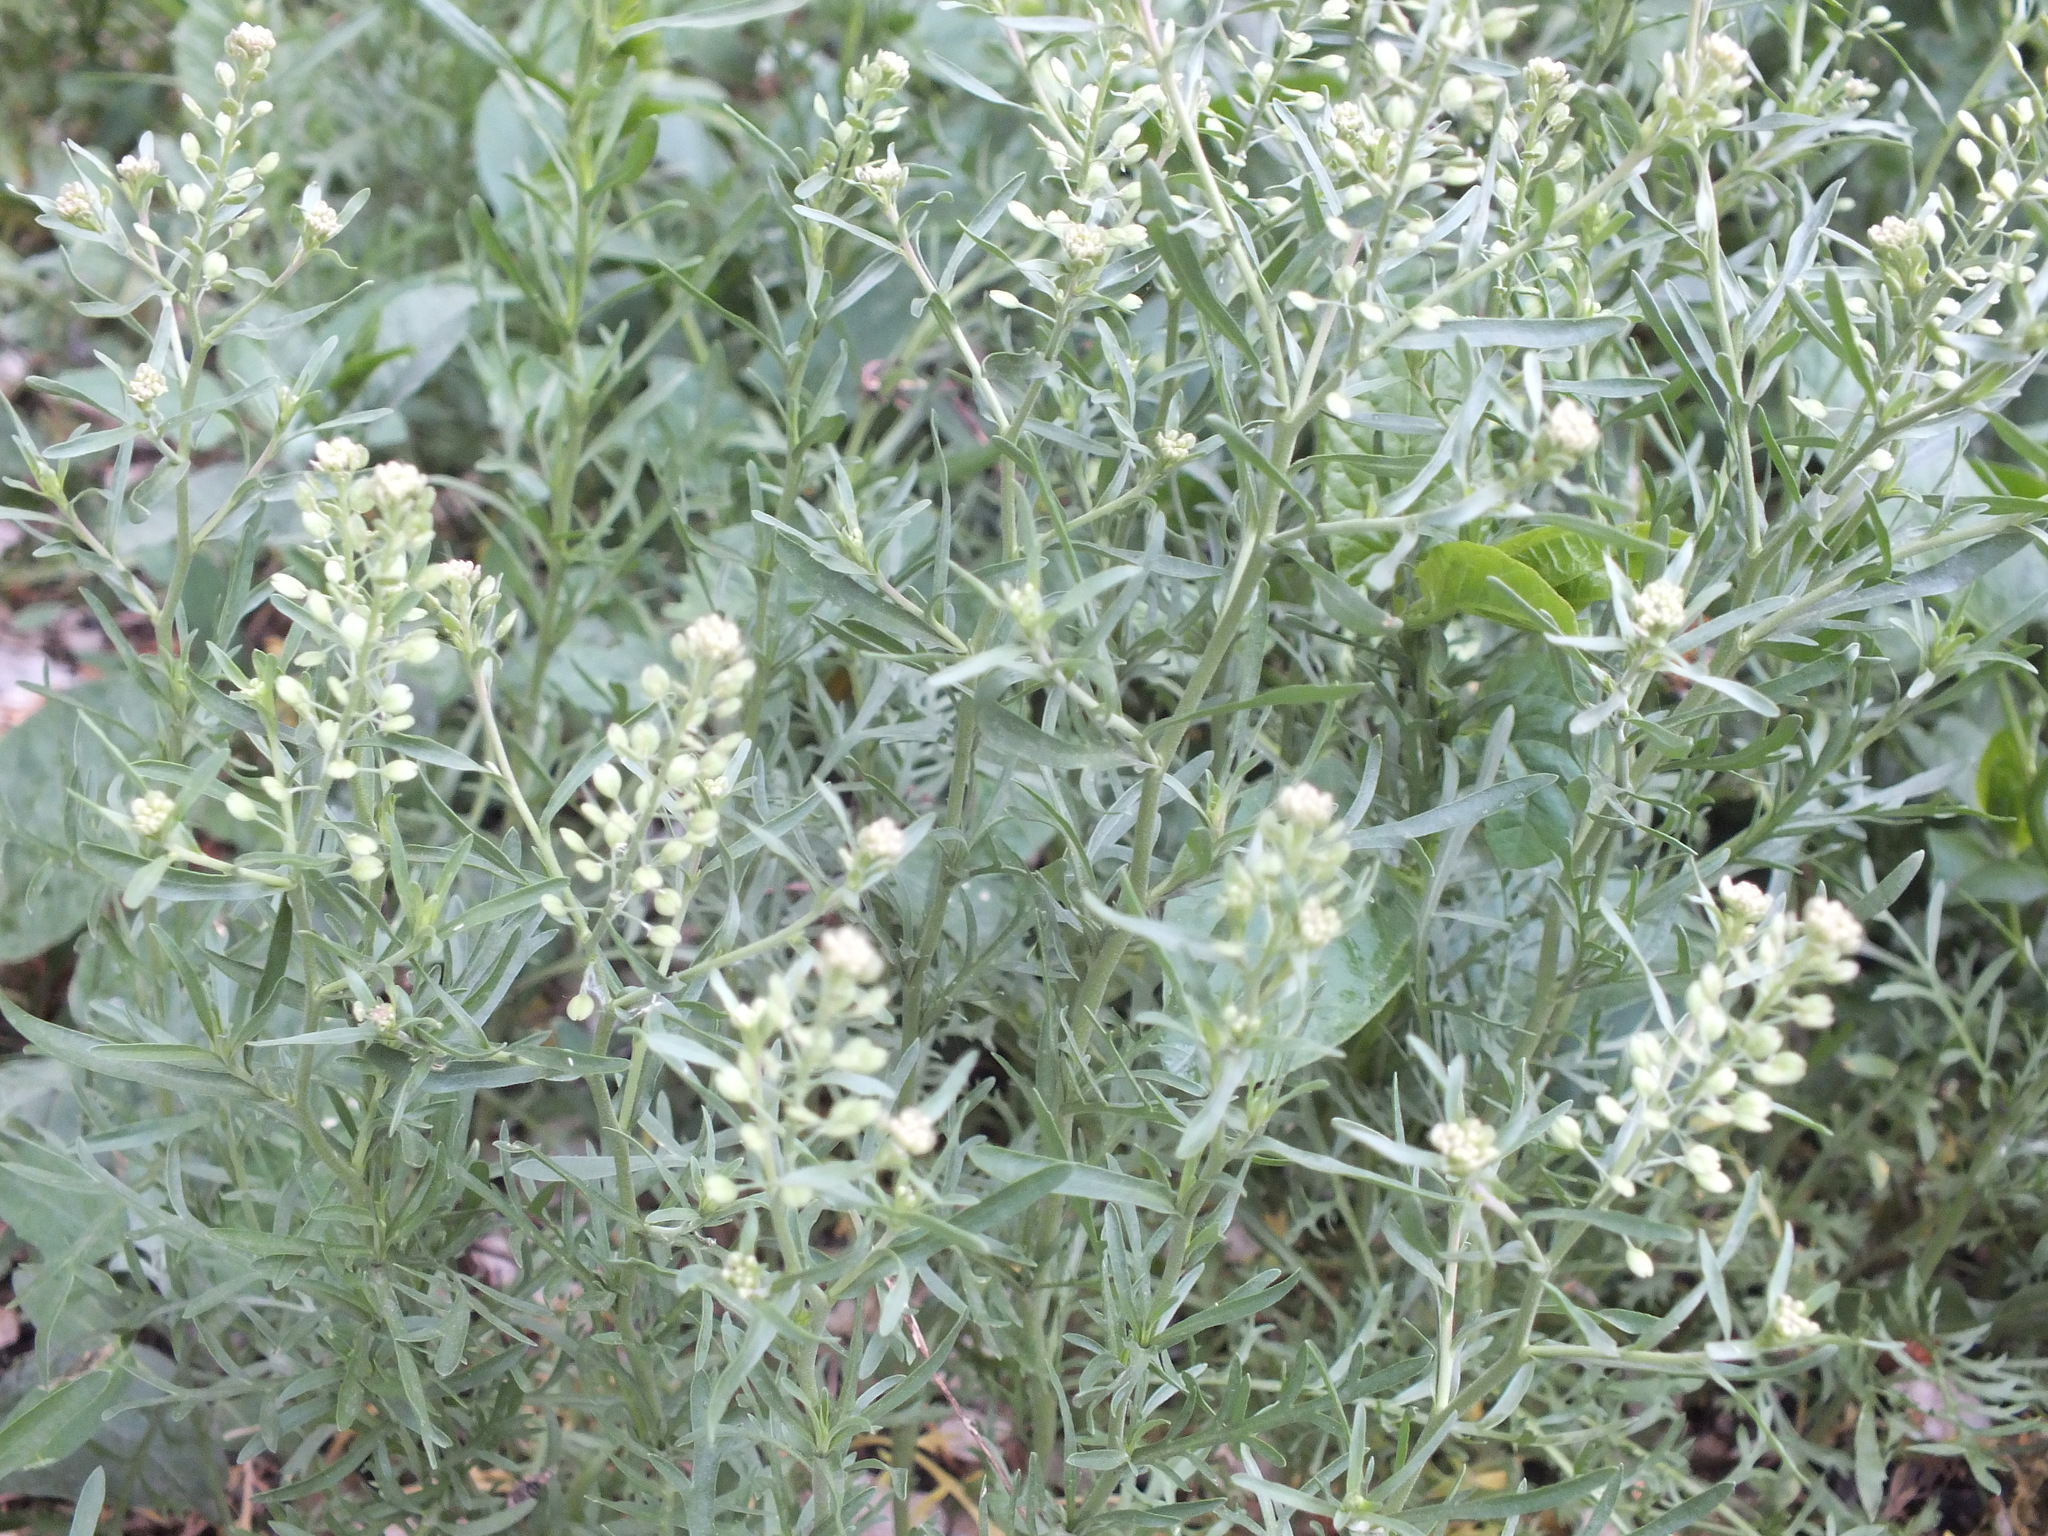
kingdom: Plantae
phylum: Tracheophyta
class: Magnoliopsida
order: Brassicales
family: Brassicaceae
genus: Lepidium
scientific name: Lepidium ruderale
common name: Narrow-leaved pepperwort
